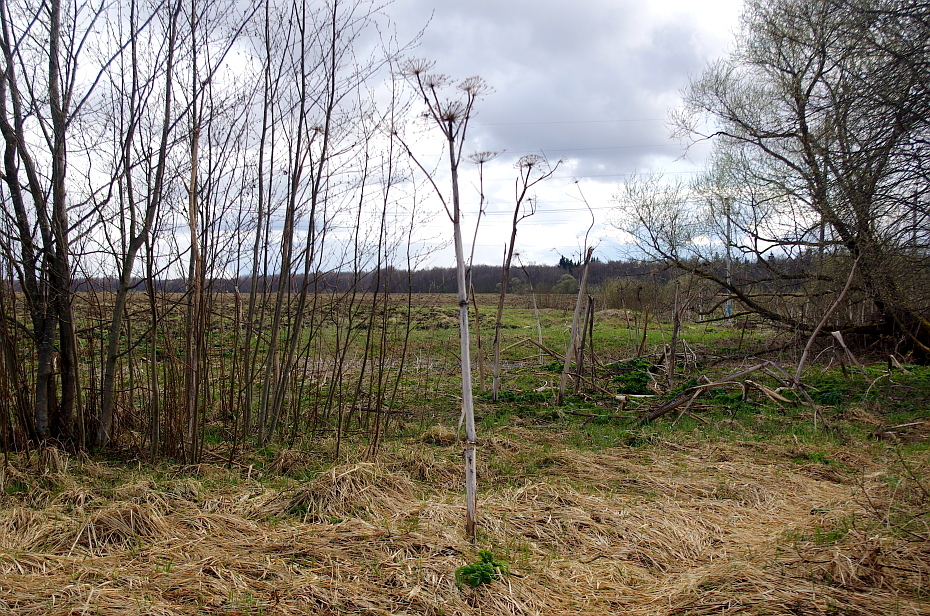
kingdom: Plantae
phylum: Tracheophyta
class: Magnoliopsida
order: Apiales
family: Apiaceae
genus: Heracleum
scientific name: Heracleum sosnowskyi
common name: Sosnowsky's hogweed
